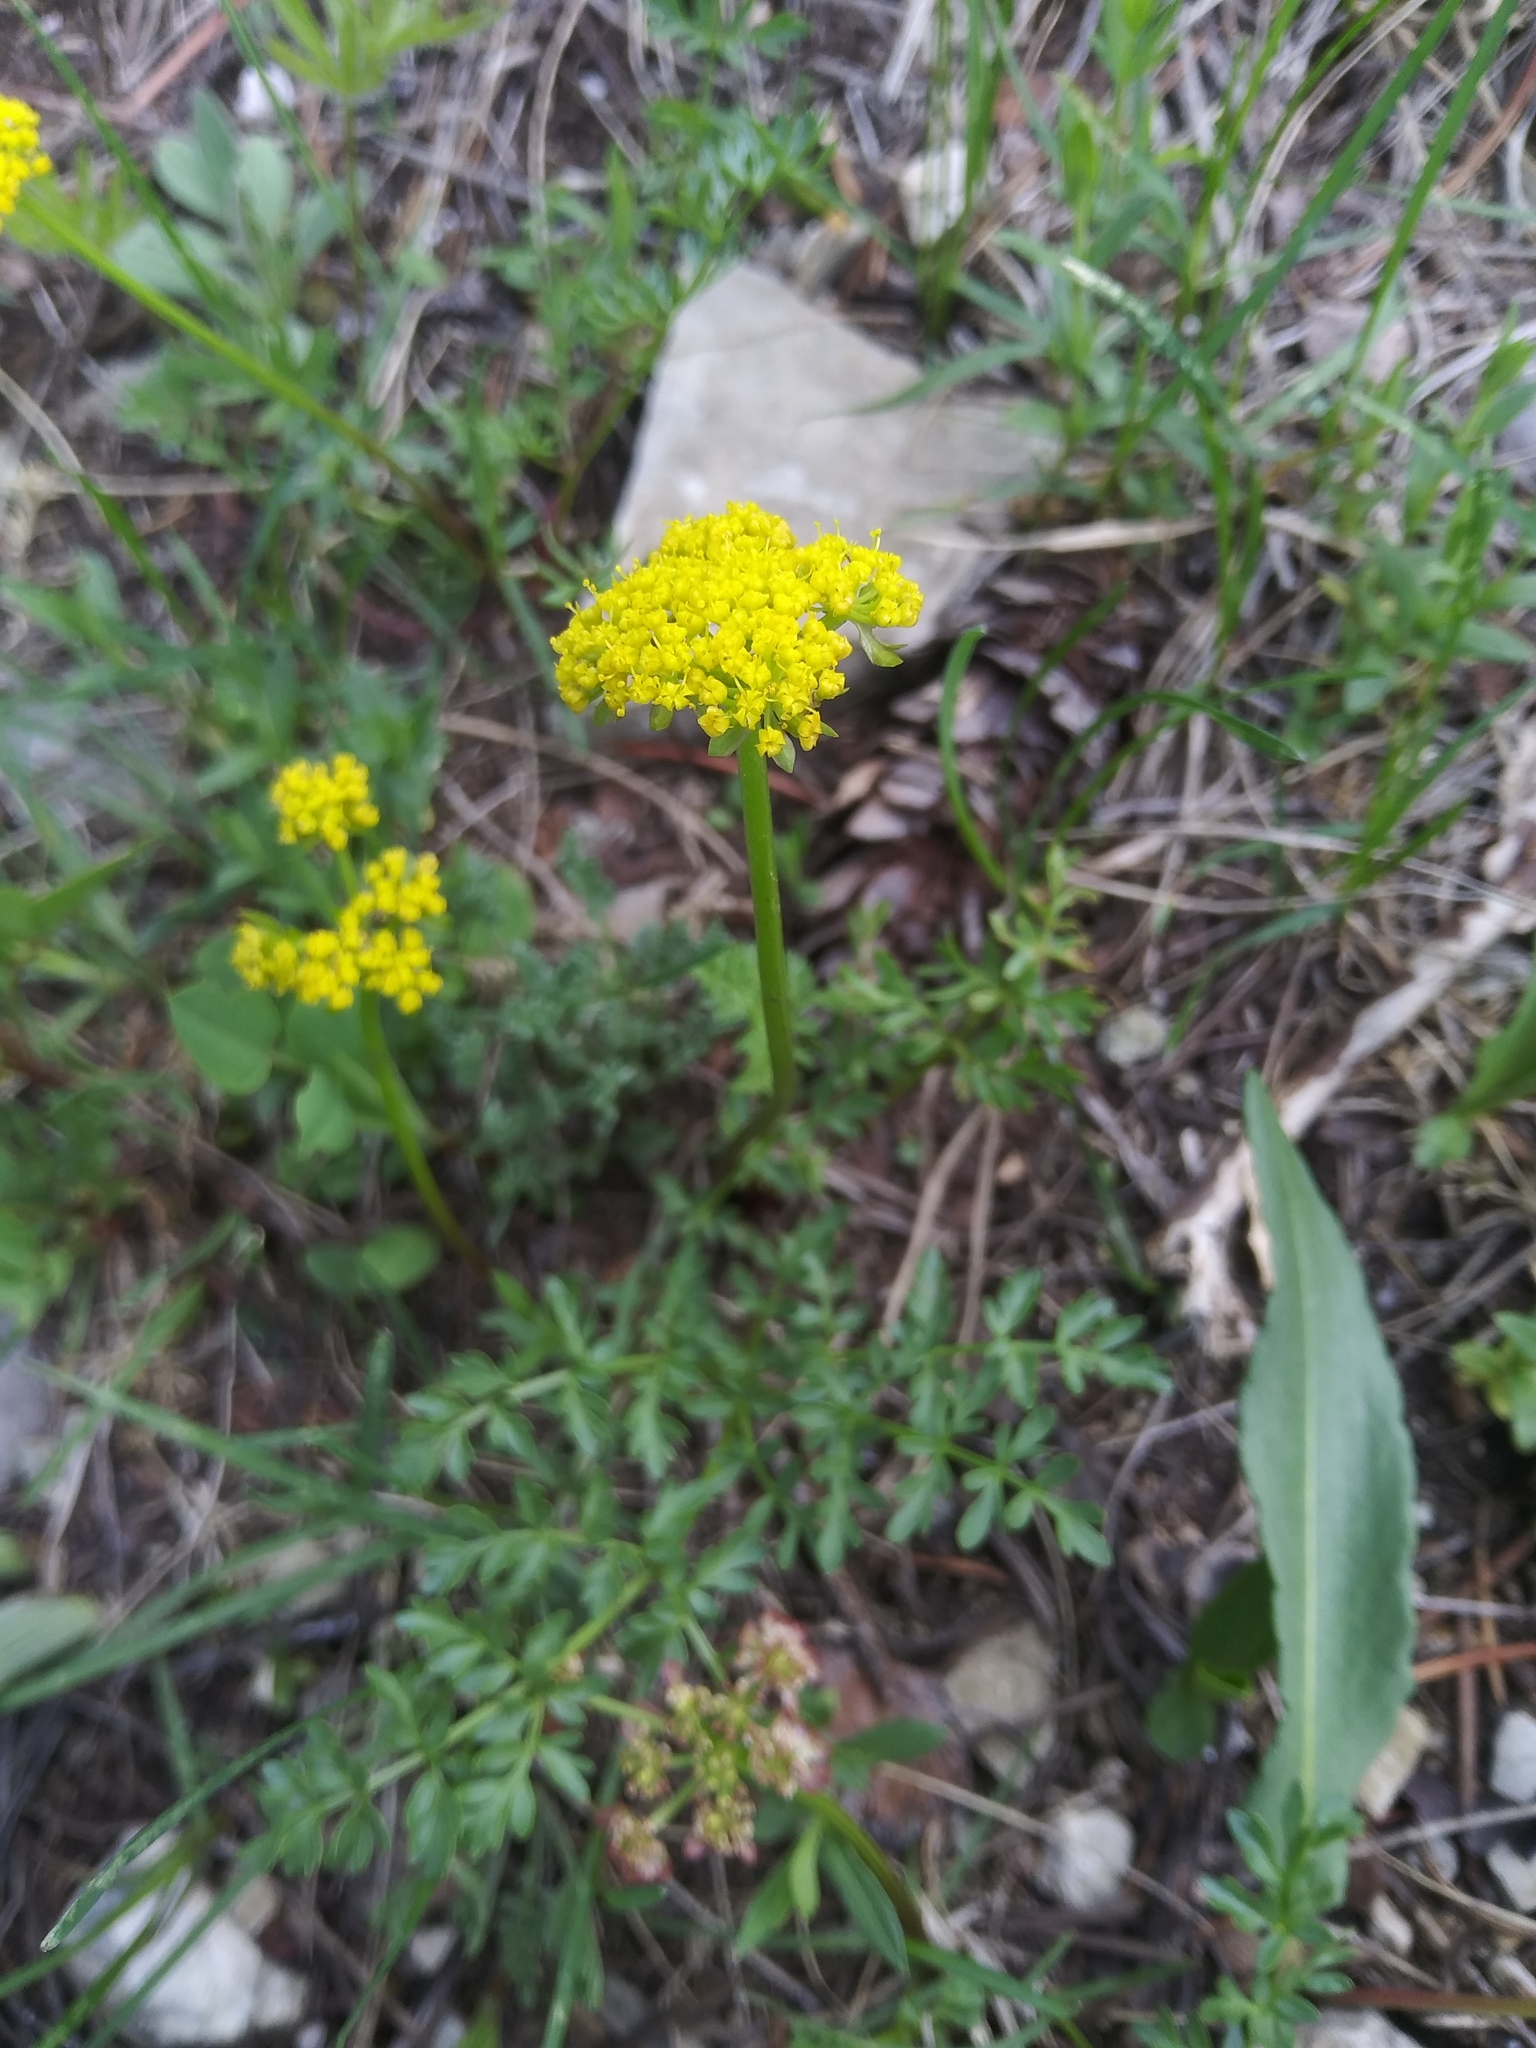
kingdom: Plantae
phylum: Tracheophyta
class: Magnoliopsida
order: Apiales
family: Apiaceae
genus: Lomatium
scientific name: Lomatium cous
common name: Biscuit-root
